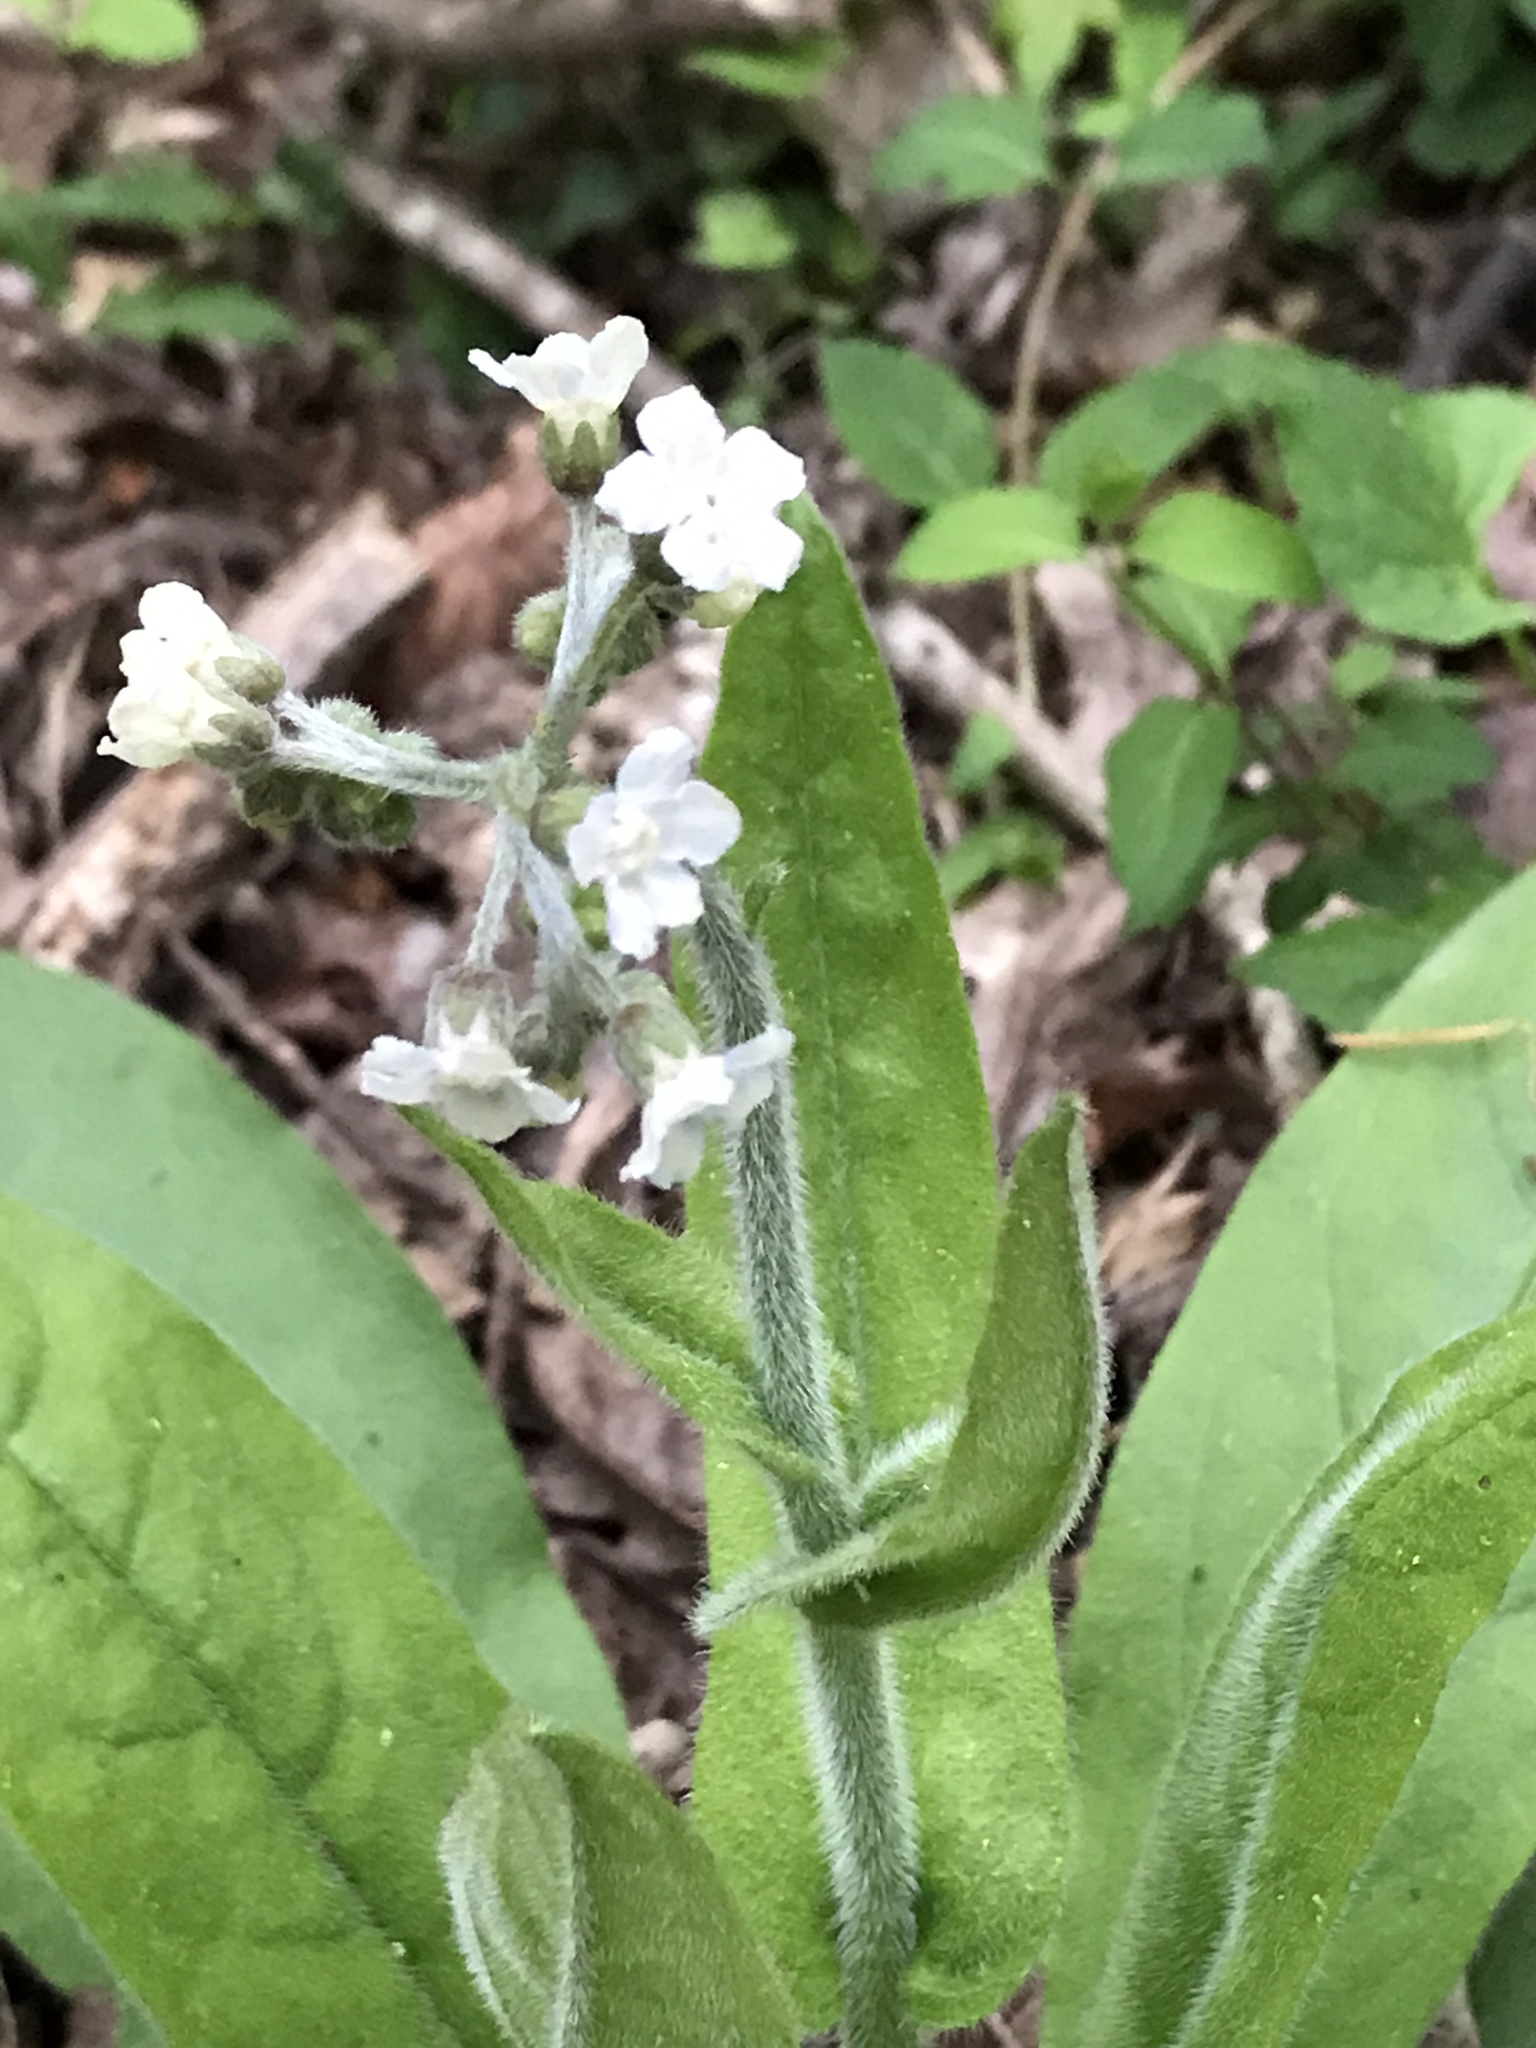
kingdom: Plantae
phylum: Tracheophyta
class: Magnoliopsida
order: Boraginales
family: Boraginaceae
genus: Andersonglossum
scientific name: Andersonglossum virginianum
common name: Wild comfrey
